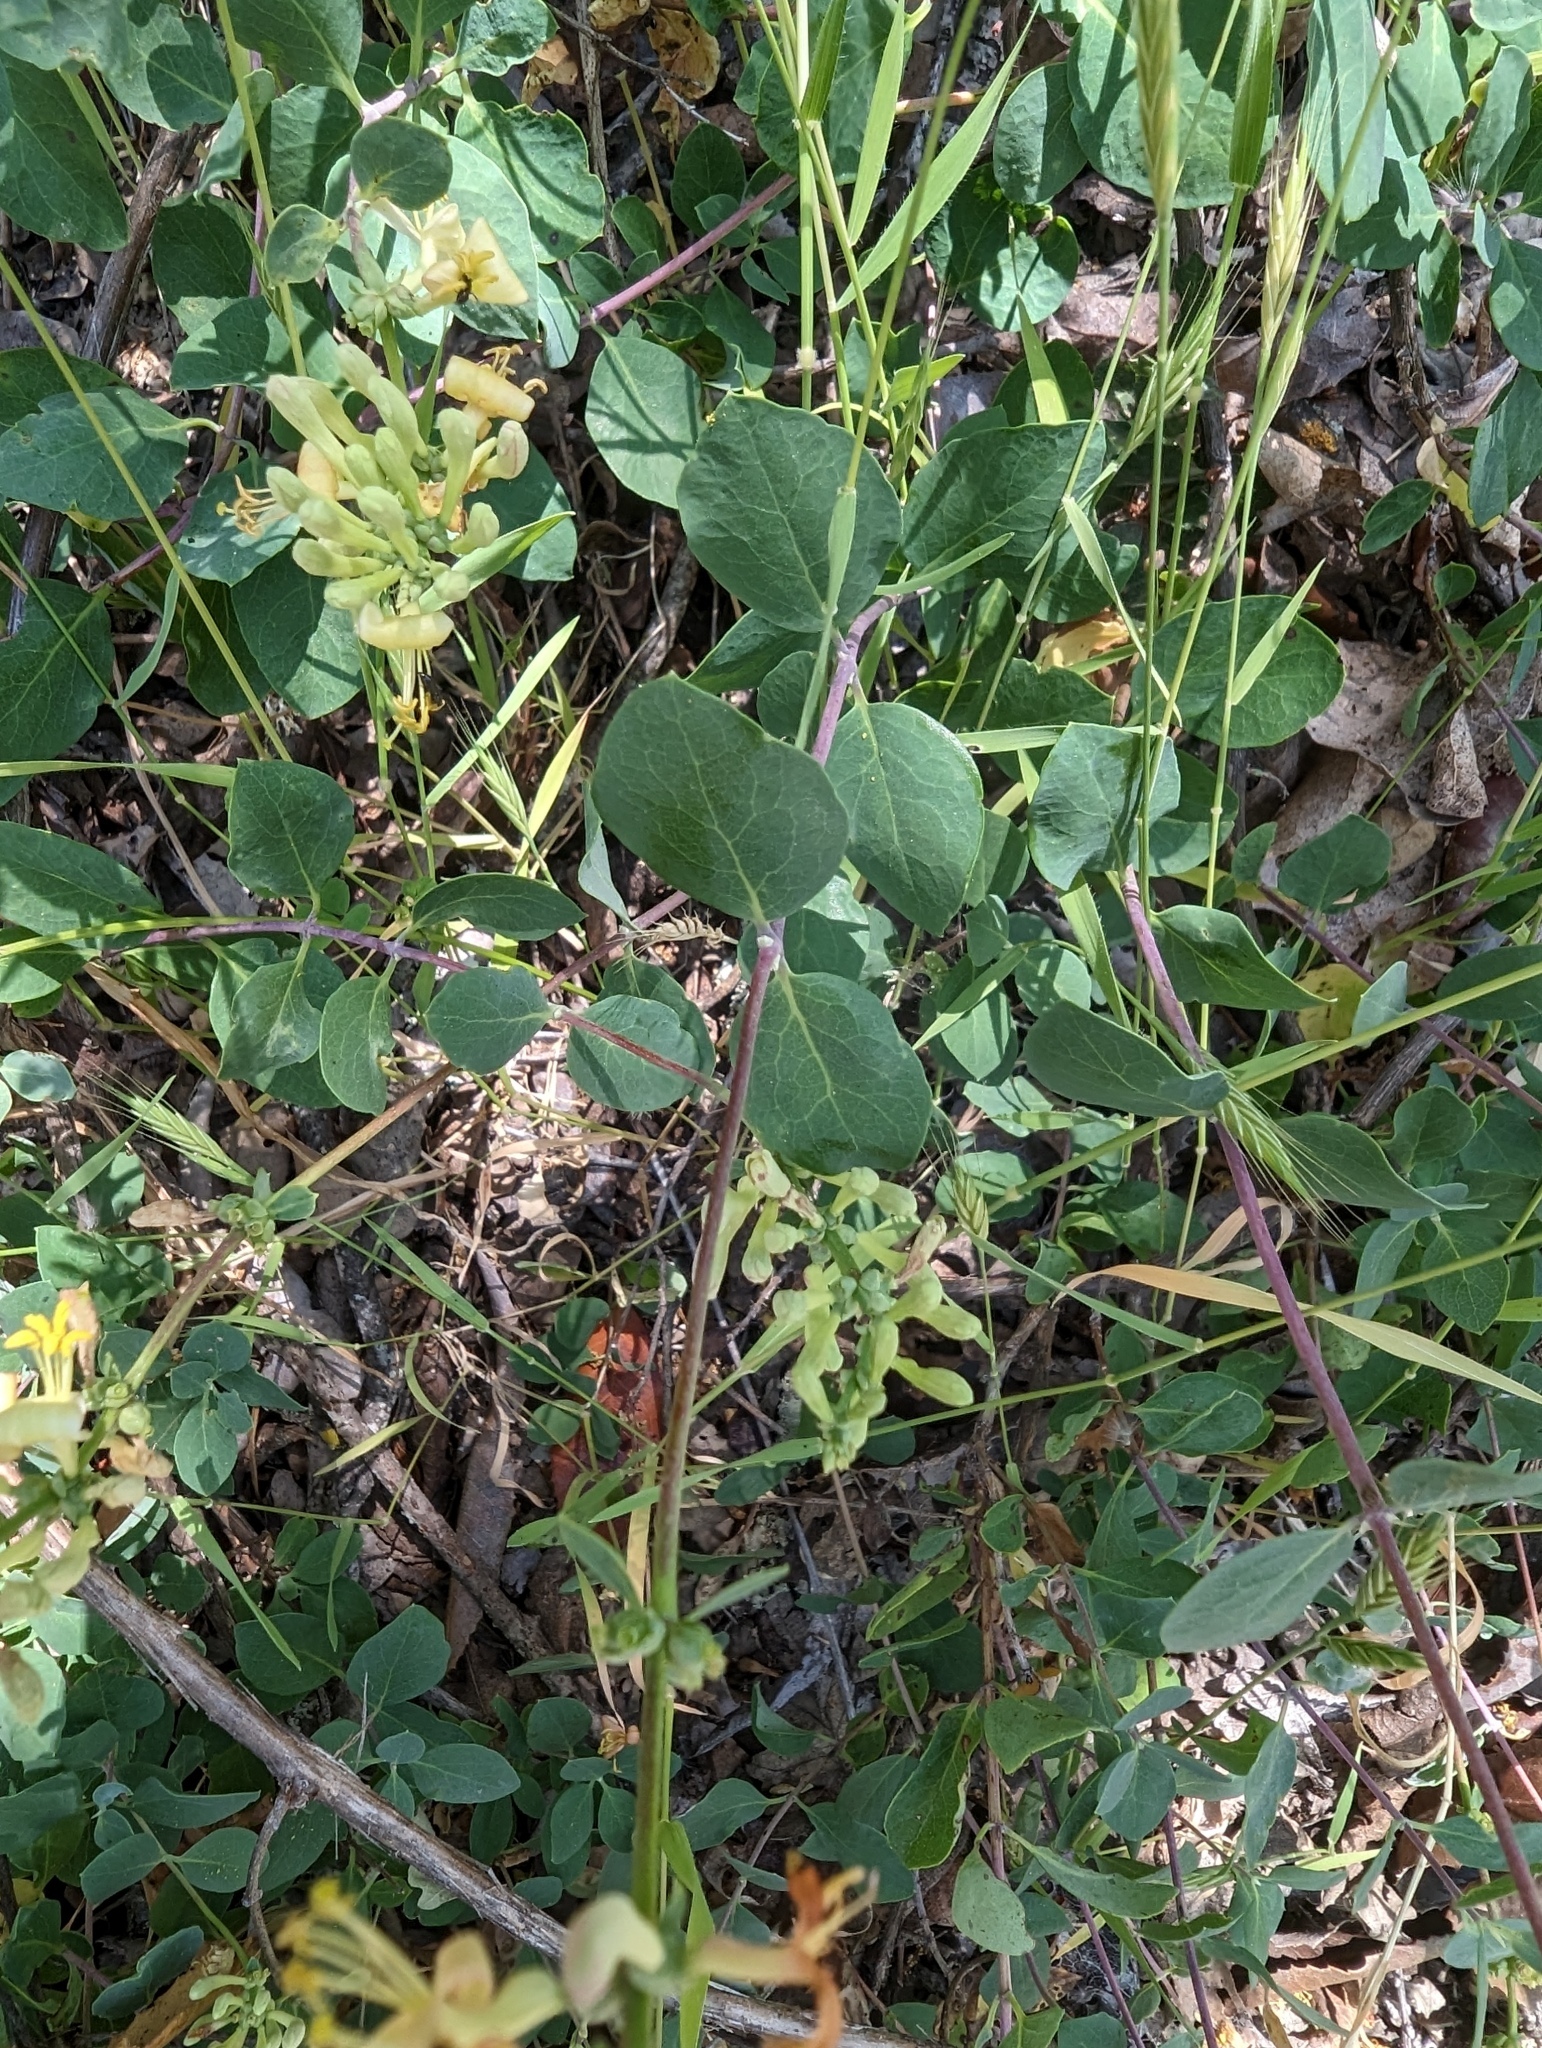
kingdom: Plantae
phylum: Tracheophyta
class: Magnoliopsida
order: Dipsacales
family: Caprifoliaceae
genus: Lonicera
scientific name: Lonicera subspicata
